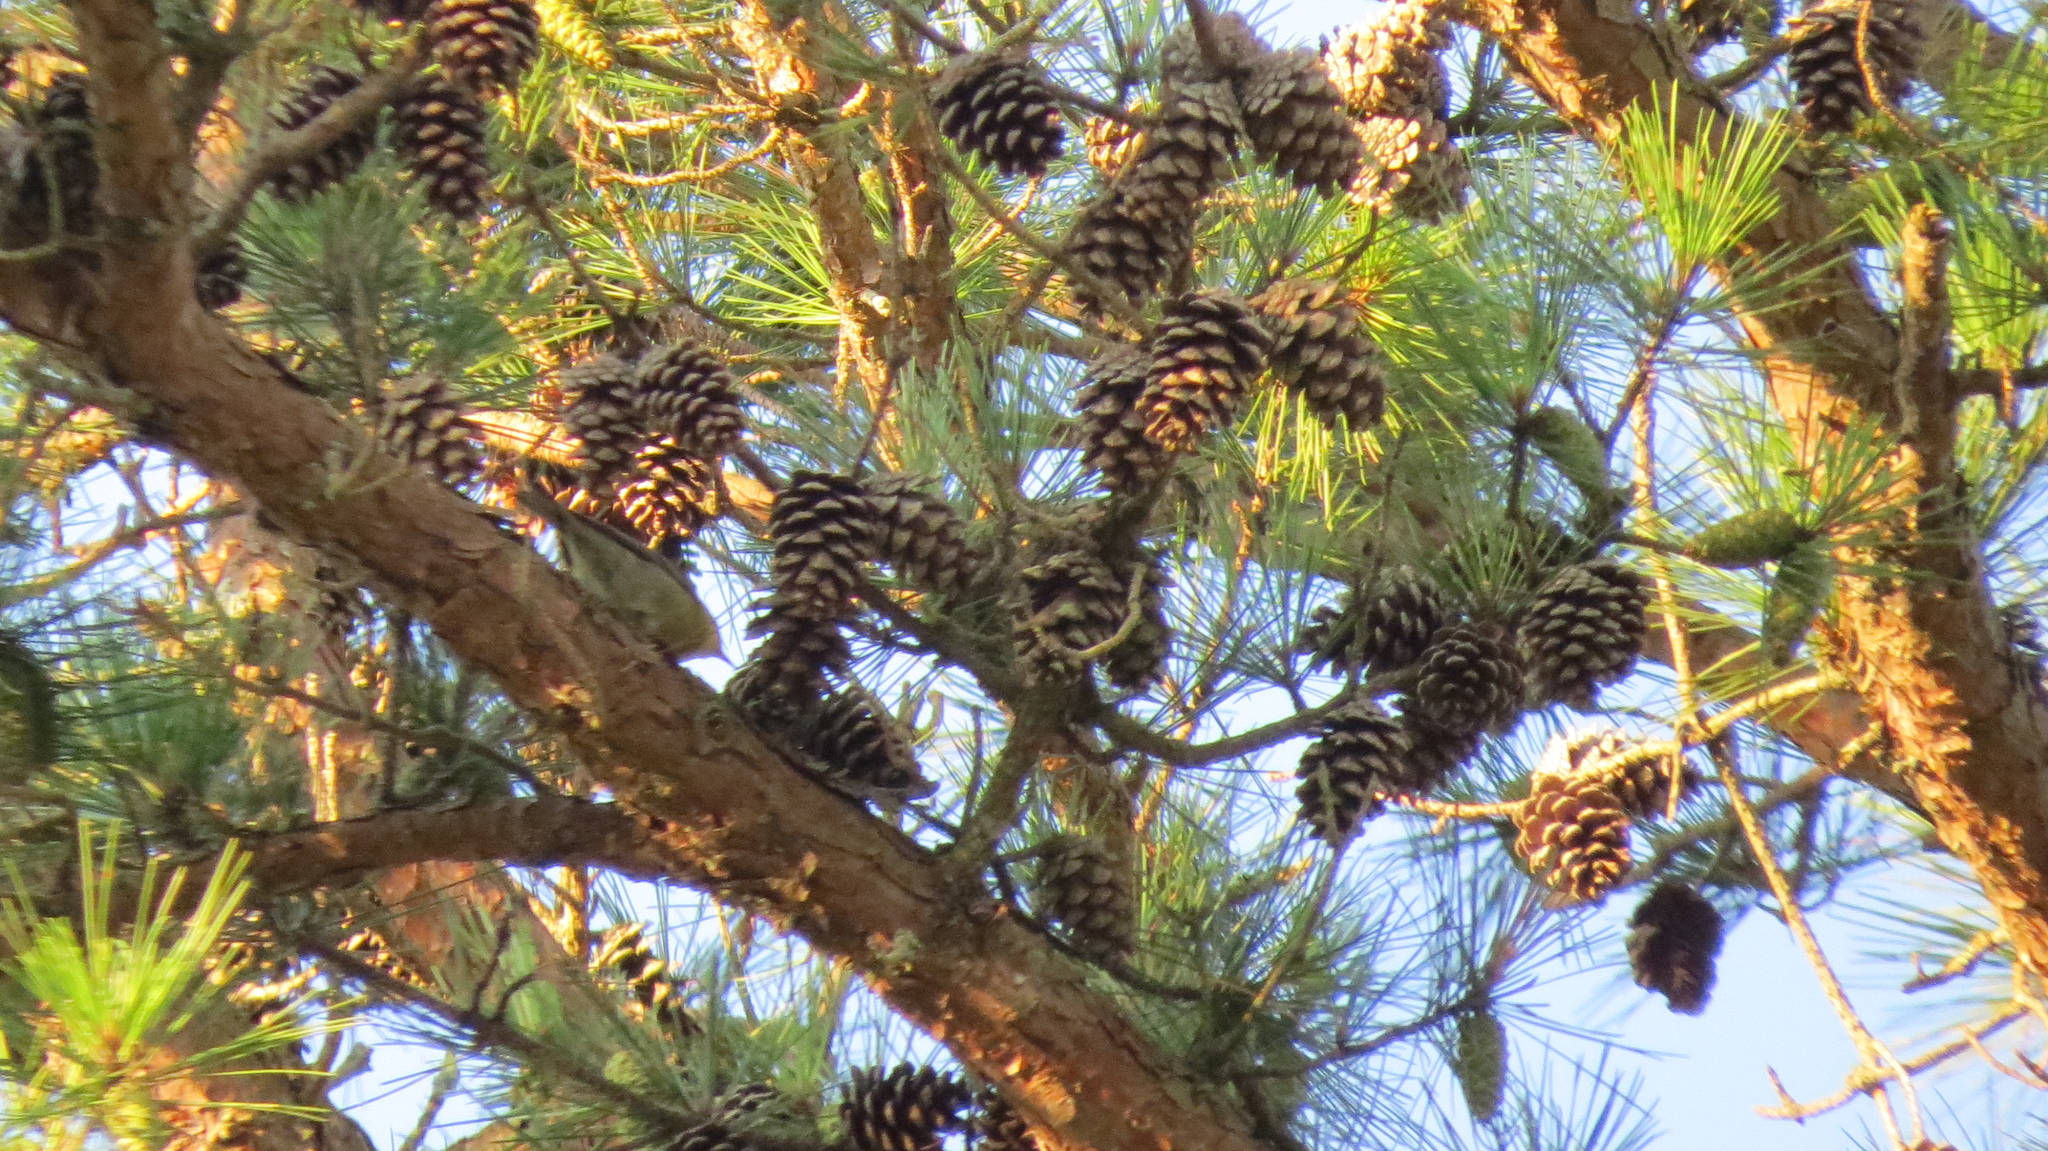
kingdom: Animalia
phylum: Chordata
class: Aves
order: Passeriformes
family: Parulidae
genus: Setophaga
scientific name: Setophaga pinus
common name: Pine warbler
